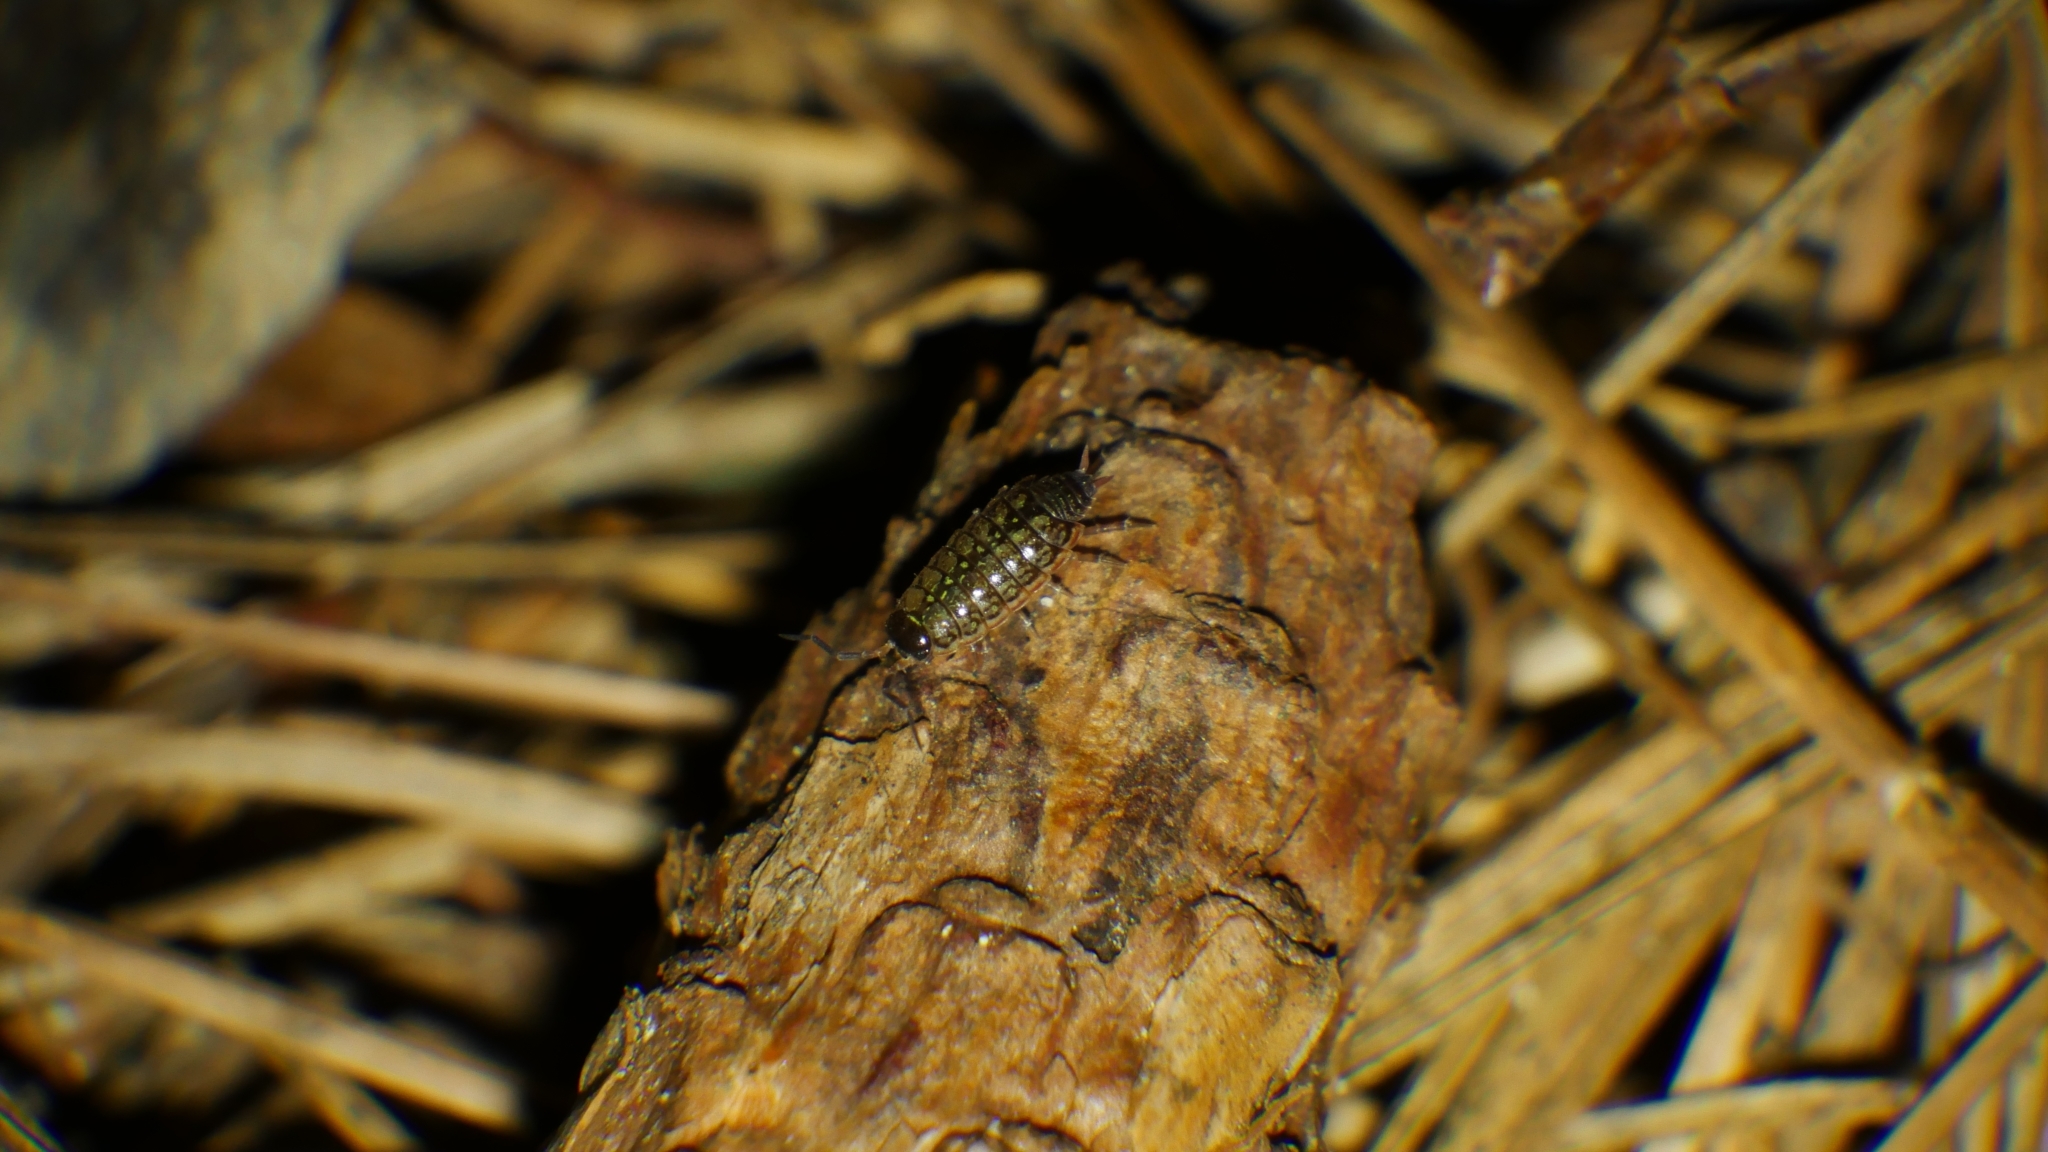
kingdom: Animalia
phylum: Arthropoda
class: Malacostraca
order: Isopoda
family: Philosciidae
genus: Philoscia
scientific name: Philoscia muscorum
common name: Common striped woodlouse
